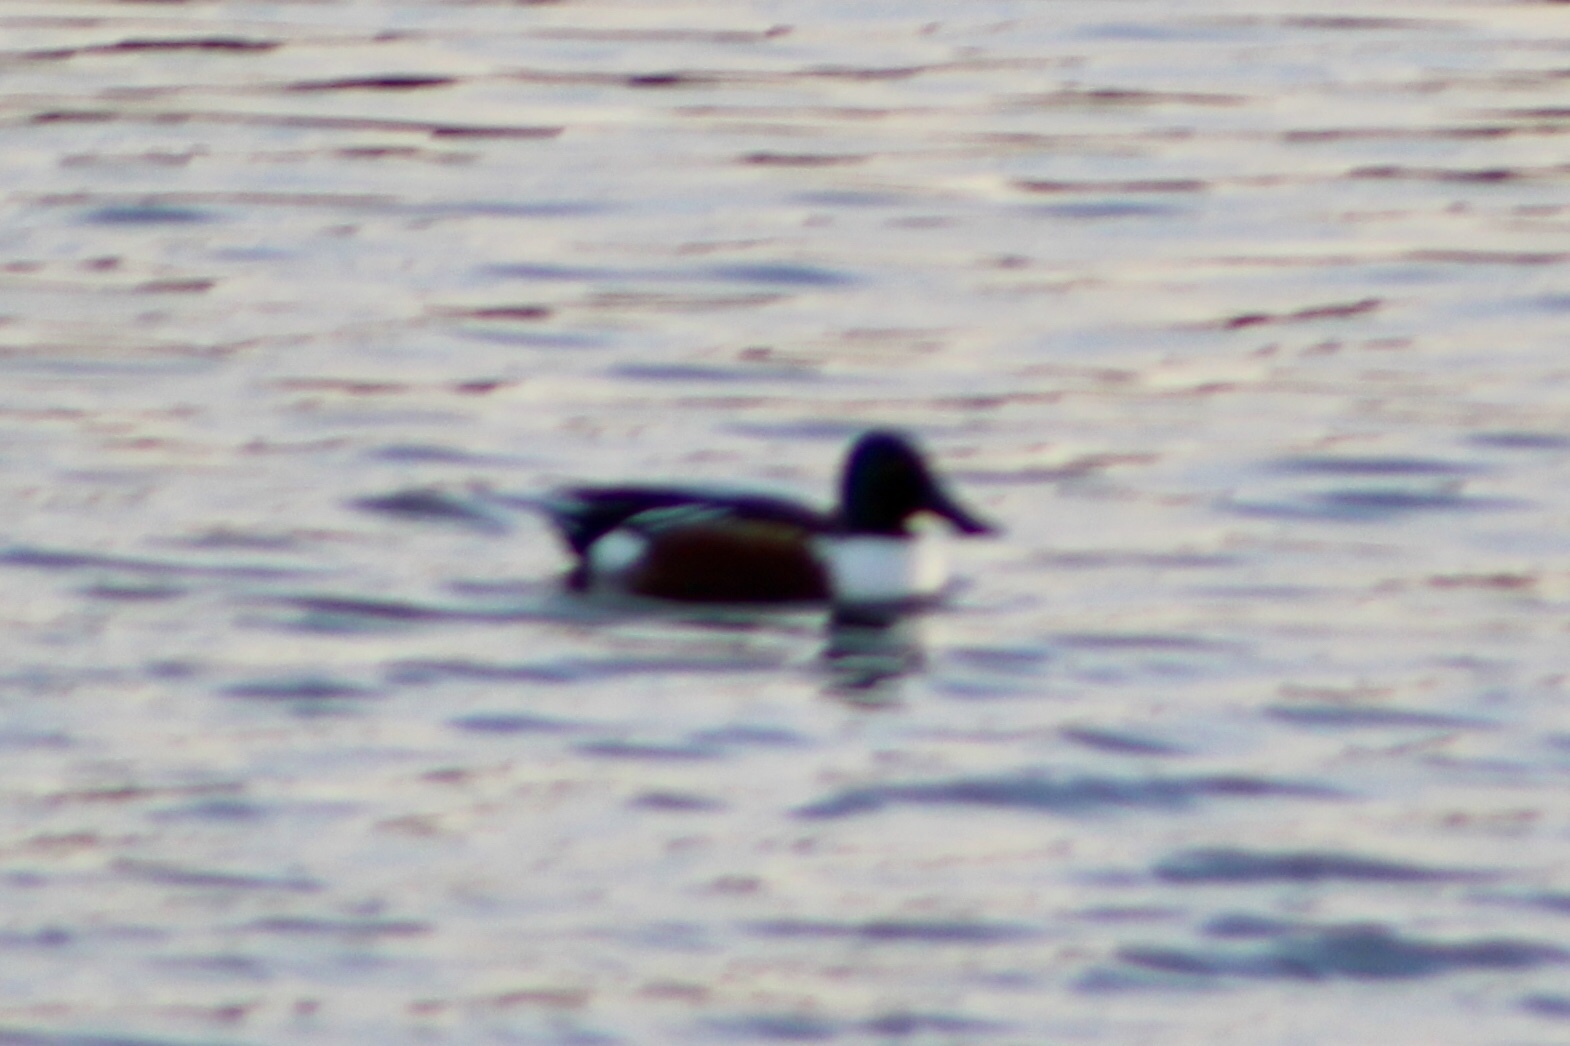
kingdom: Animalia
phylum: Chordata
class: Aves
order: Anseriformes
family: Anatidae
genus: Spatula
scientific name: Spatula clypeata
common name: Northern shoveler
